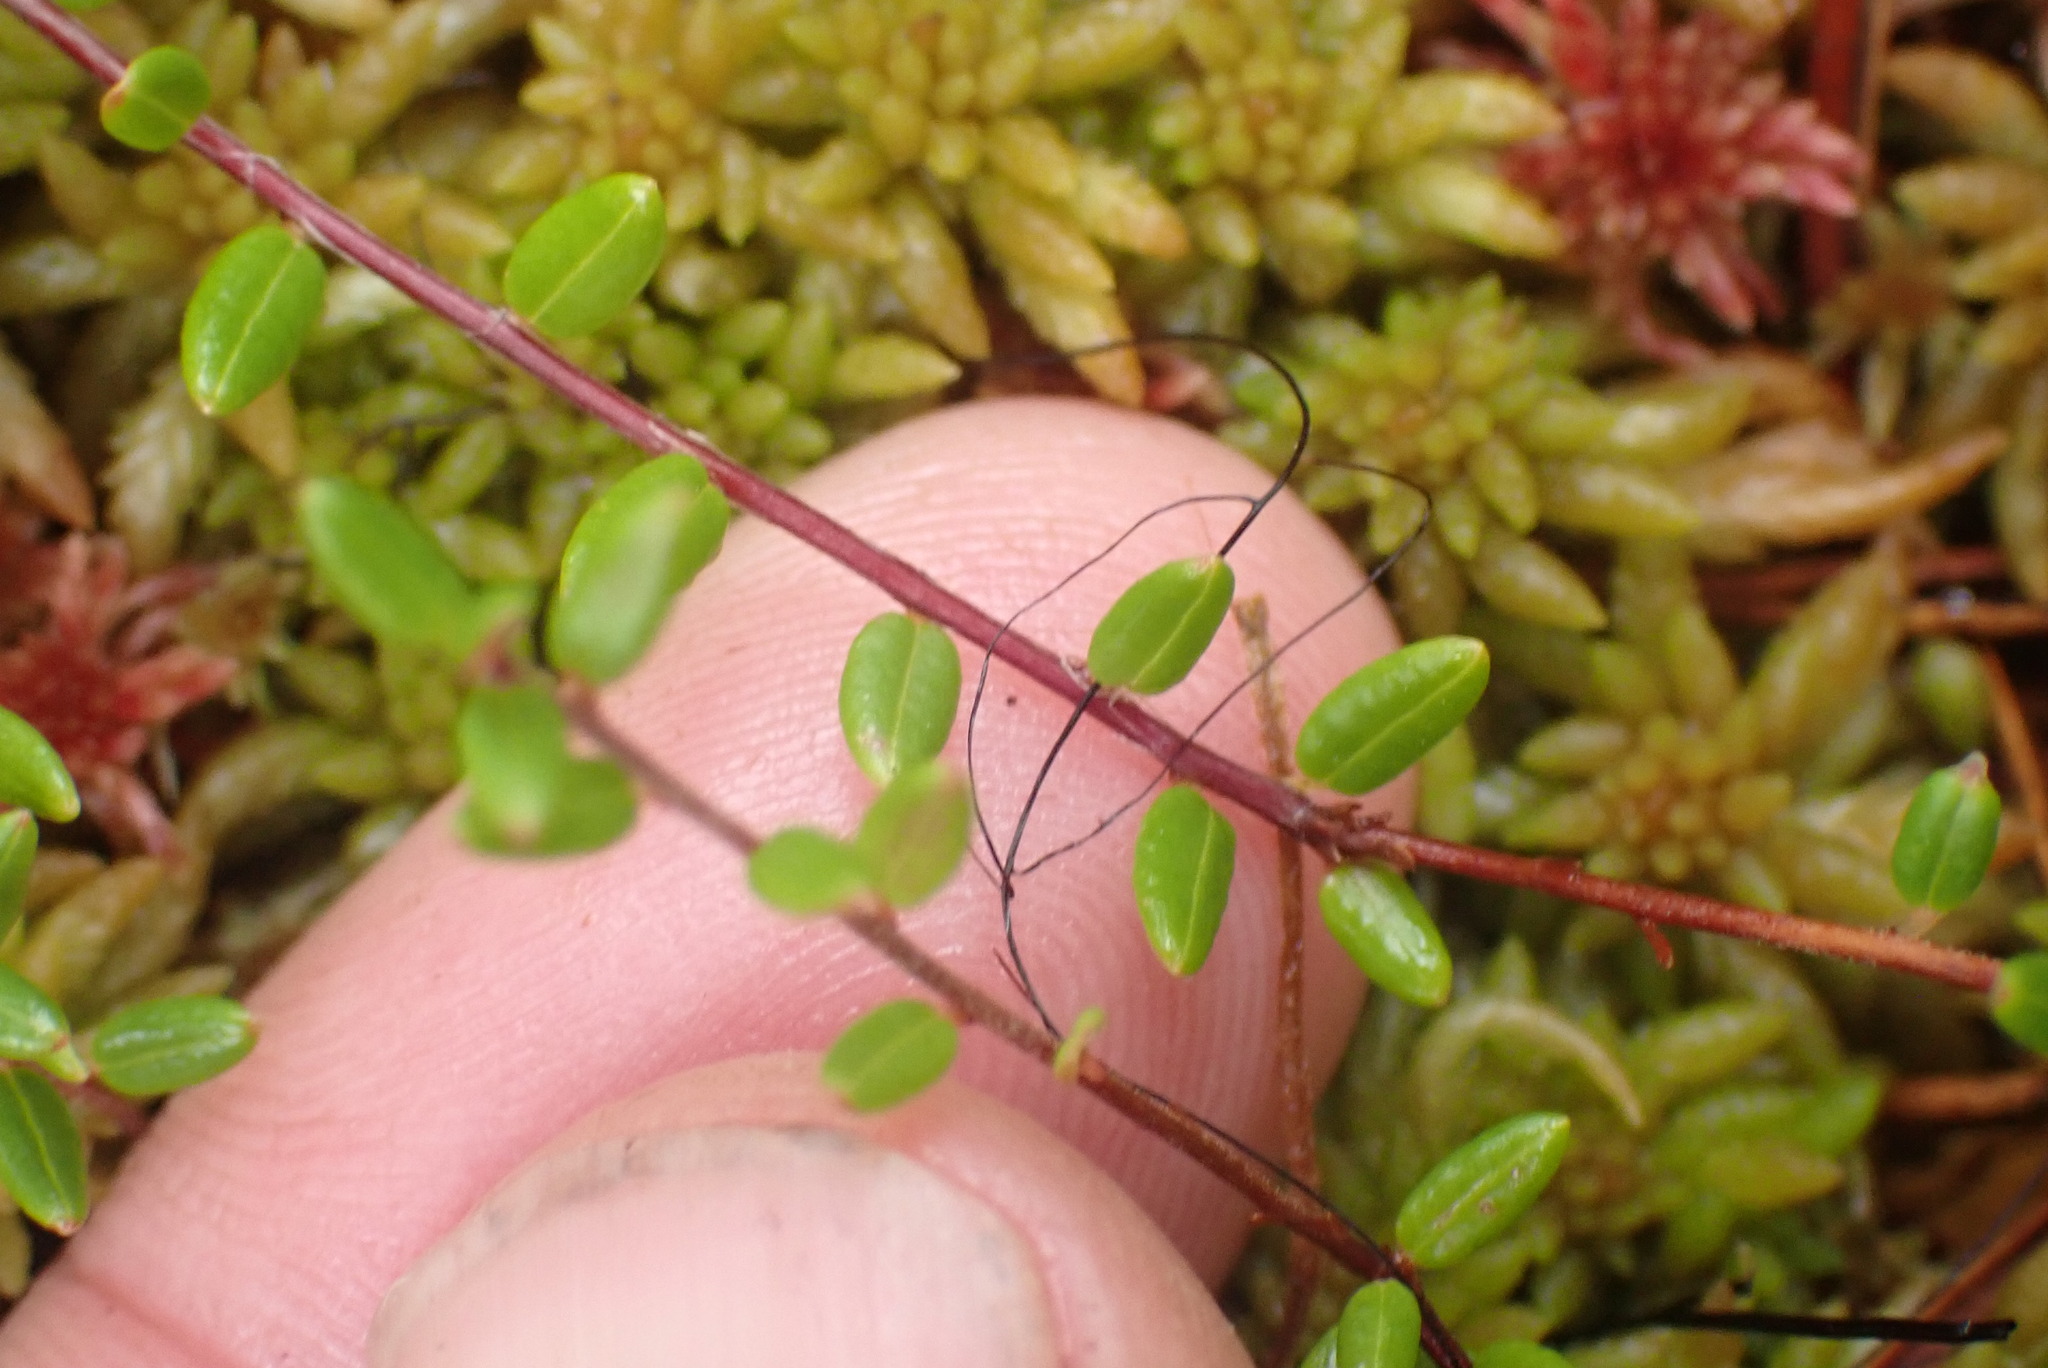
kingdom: Plantae
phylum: Tracheophyta
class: Magnoliopsida
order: Ericales
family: Ericaceae
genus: Vaccinium
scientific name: Vaccinium oxycoccos
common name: Cranberry
